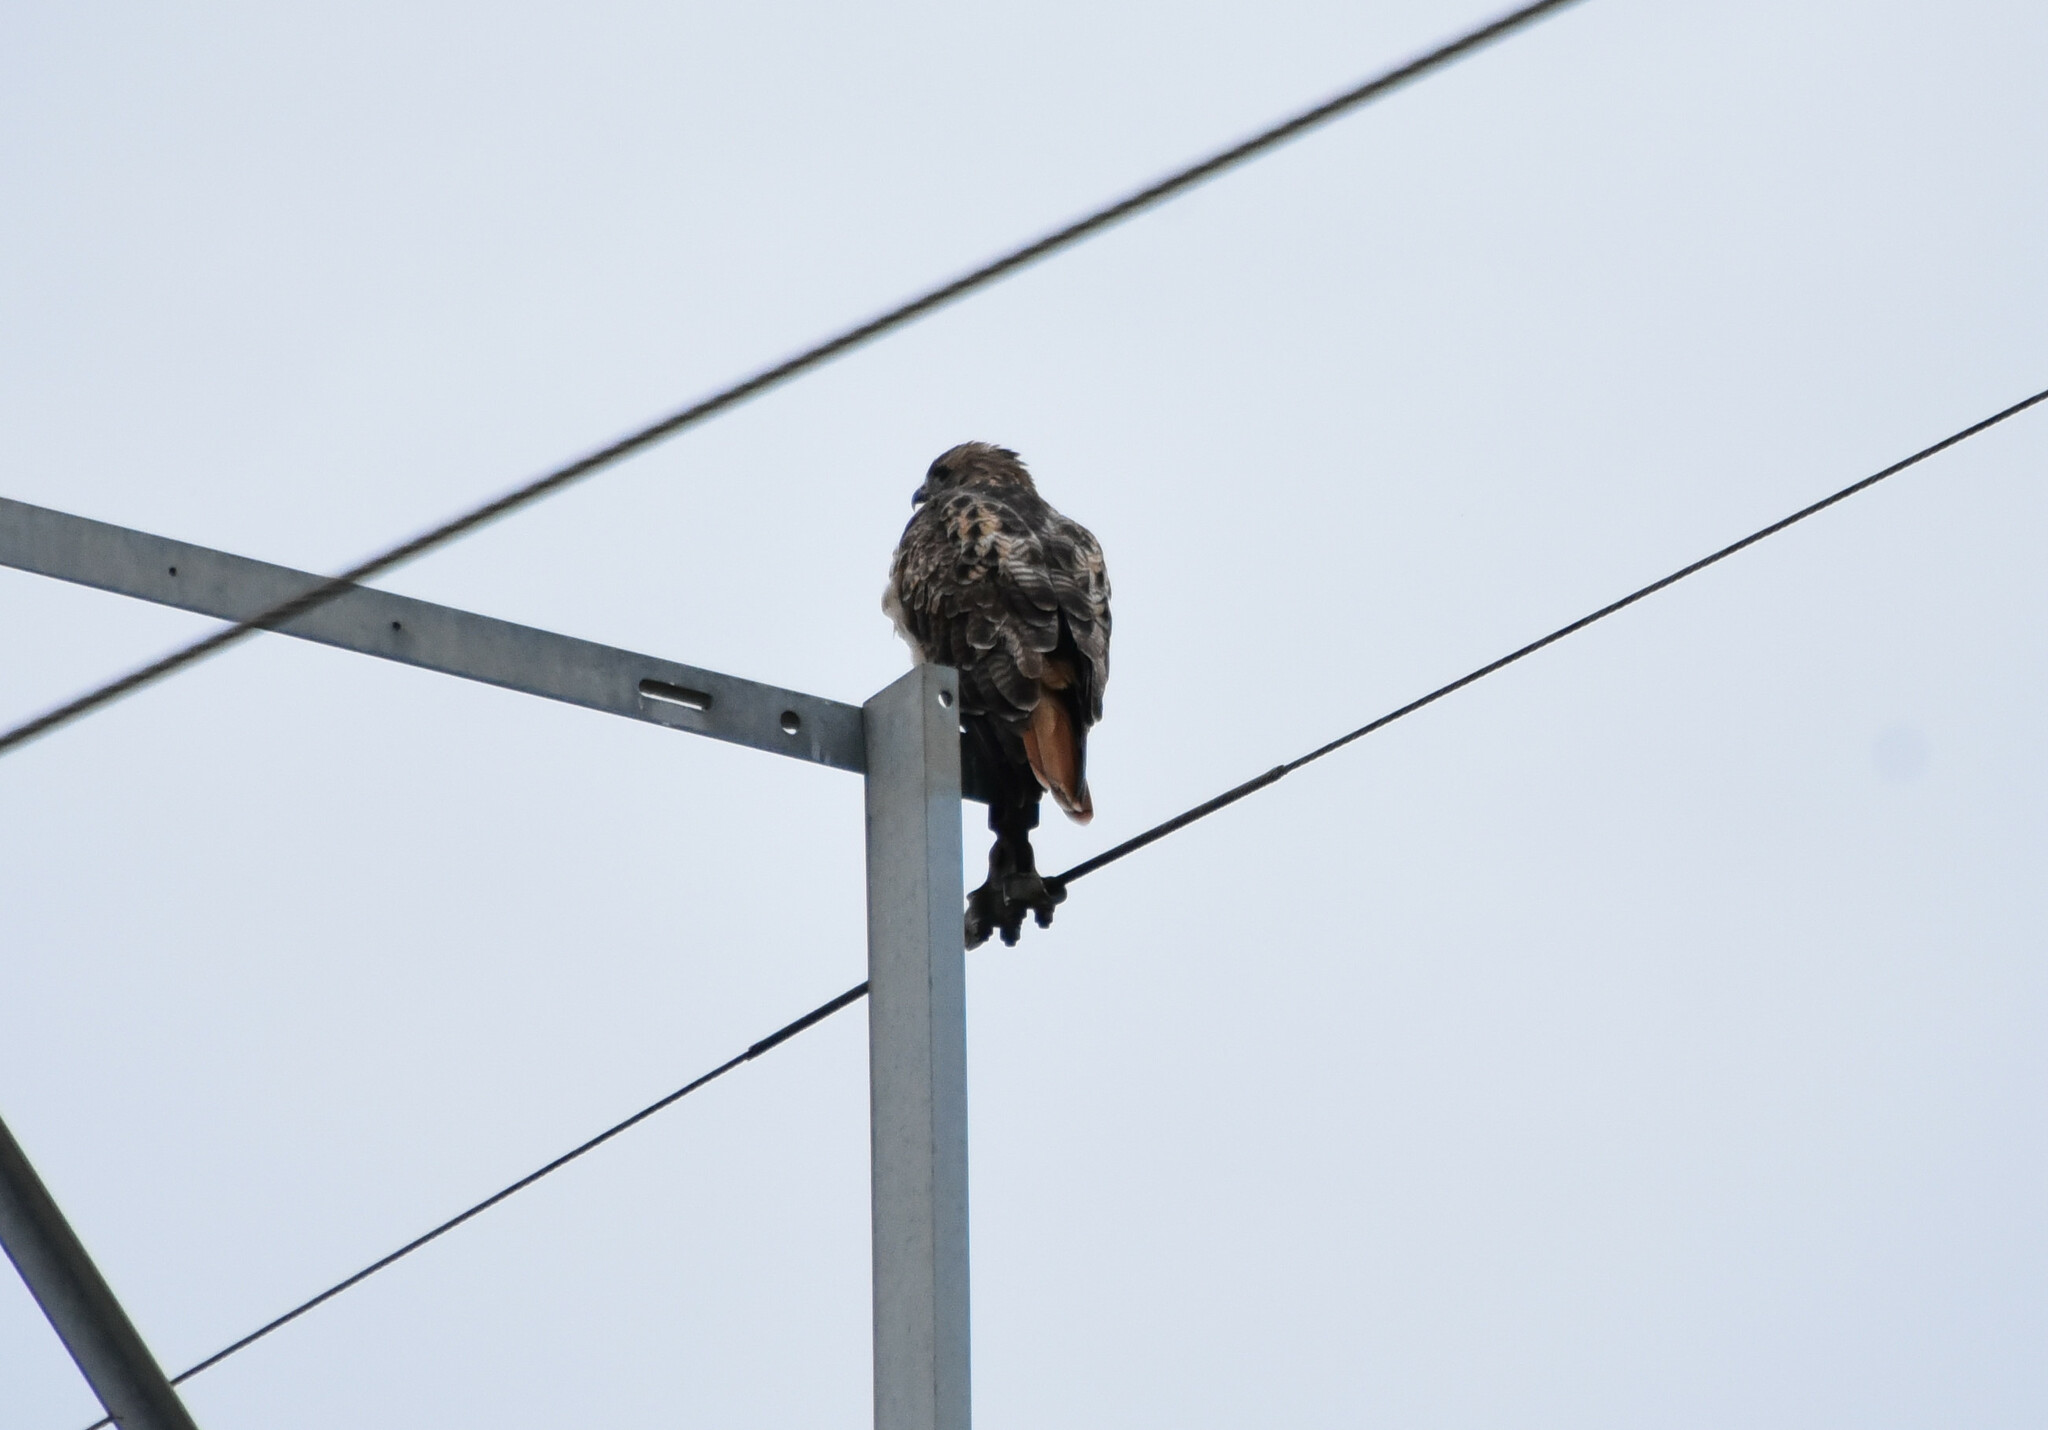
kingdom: Animalia
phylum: Chordata
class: Aves
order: Accipitriformes
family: Accipitridae
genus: Buteo
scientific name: Buteo jamaicensis
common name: Red-tailed hawk
